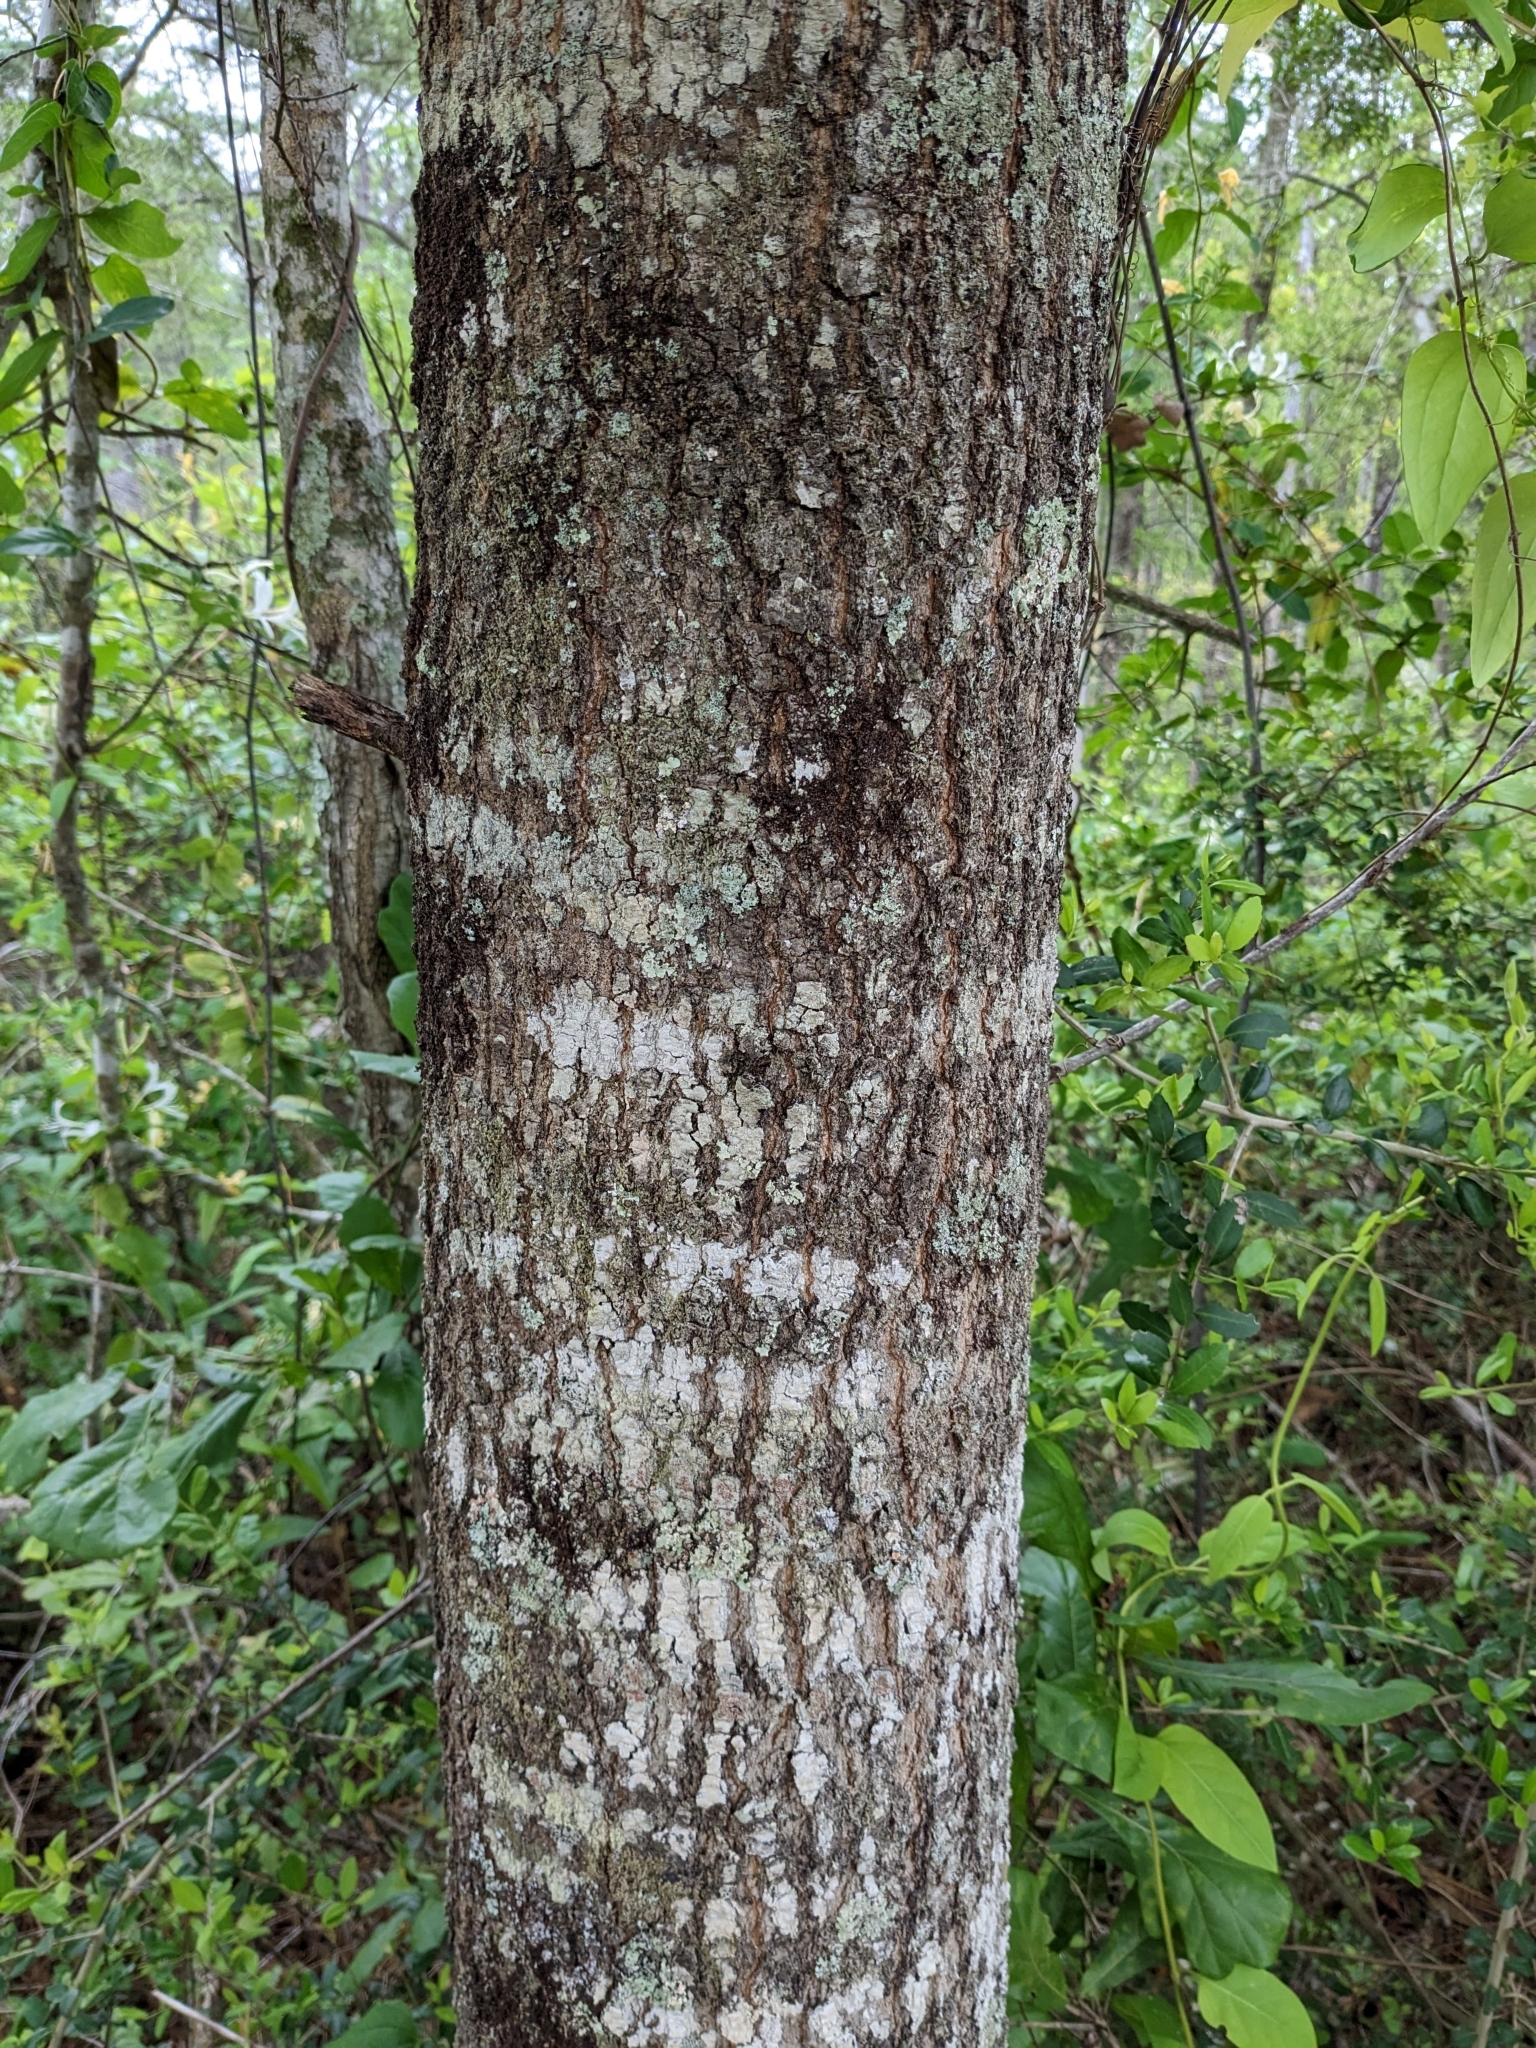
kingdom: Plantae
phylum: Tracheophyta
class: Magnoliopsida
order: Fagales
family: Fagaceae
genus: Quercus
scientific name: Quercus nigra
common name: Water oak
